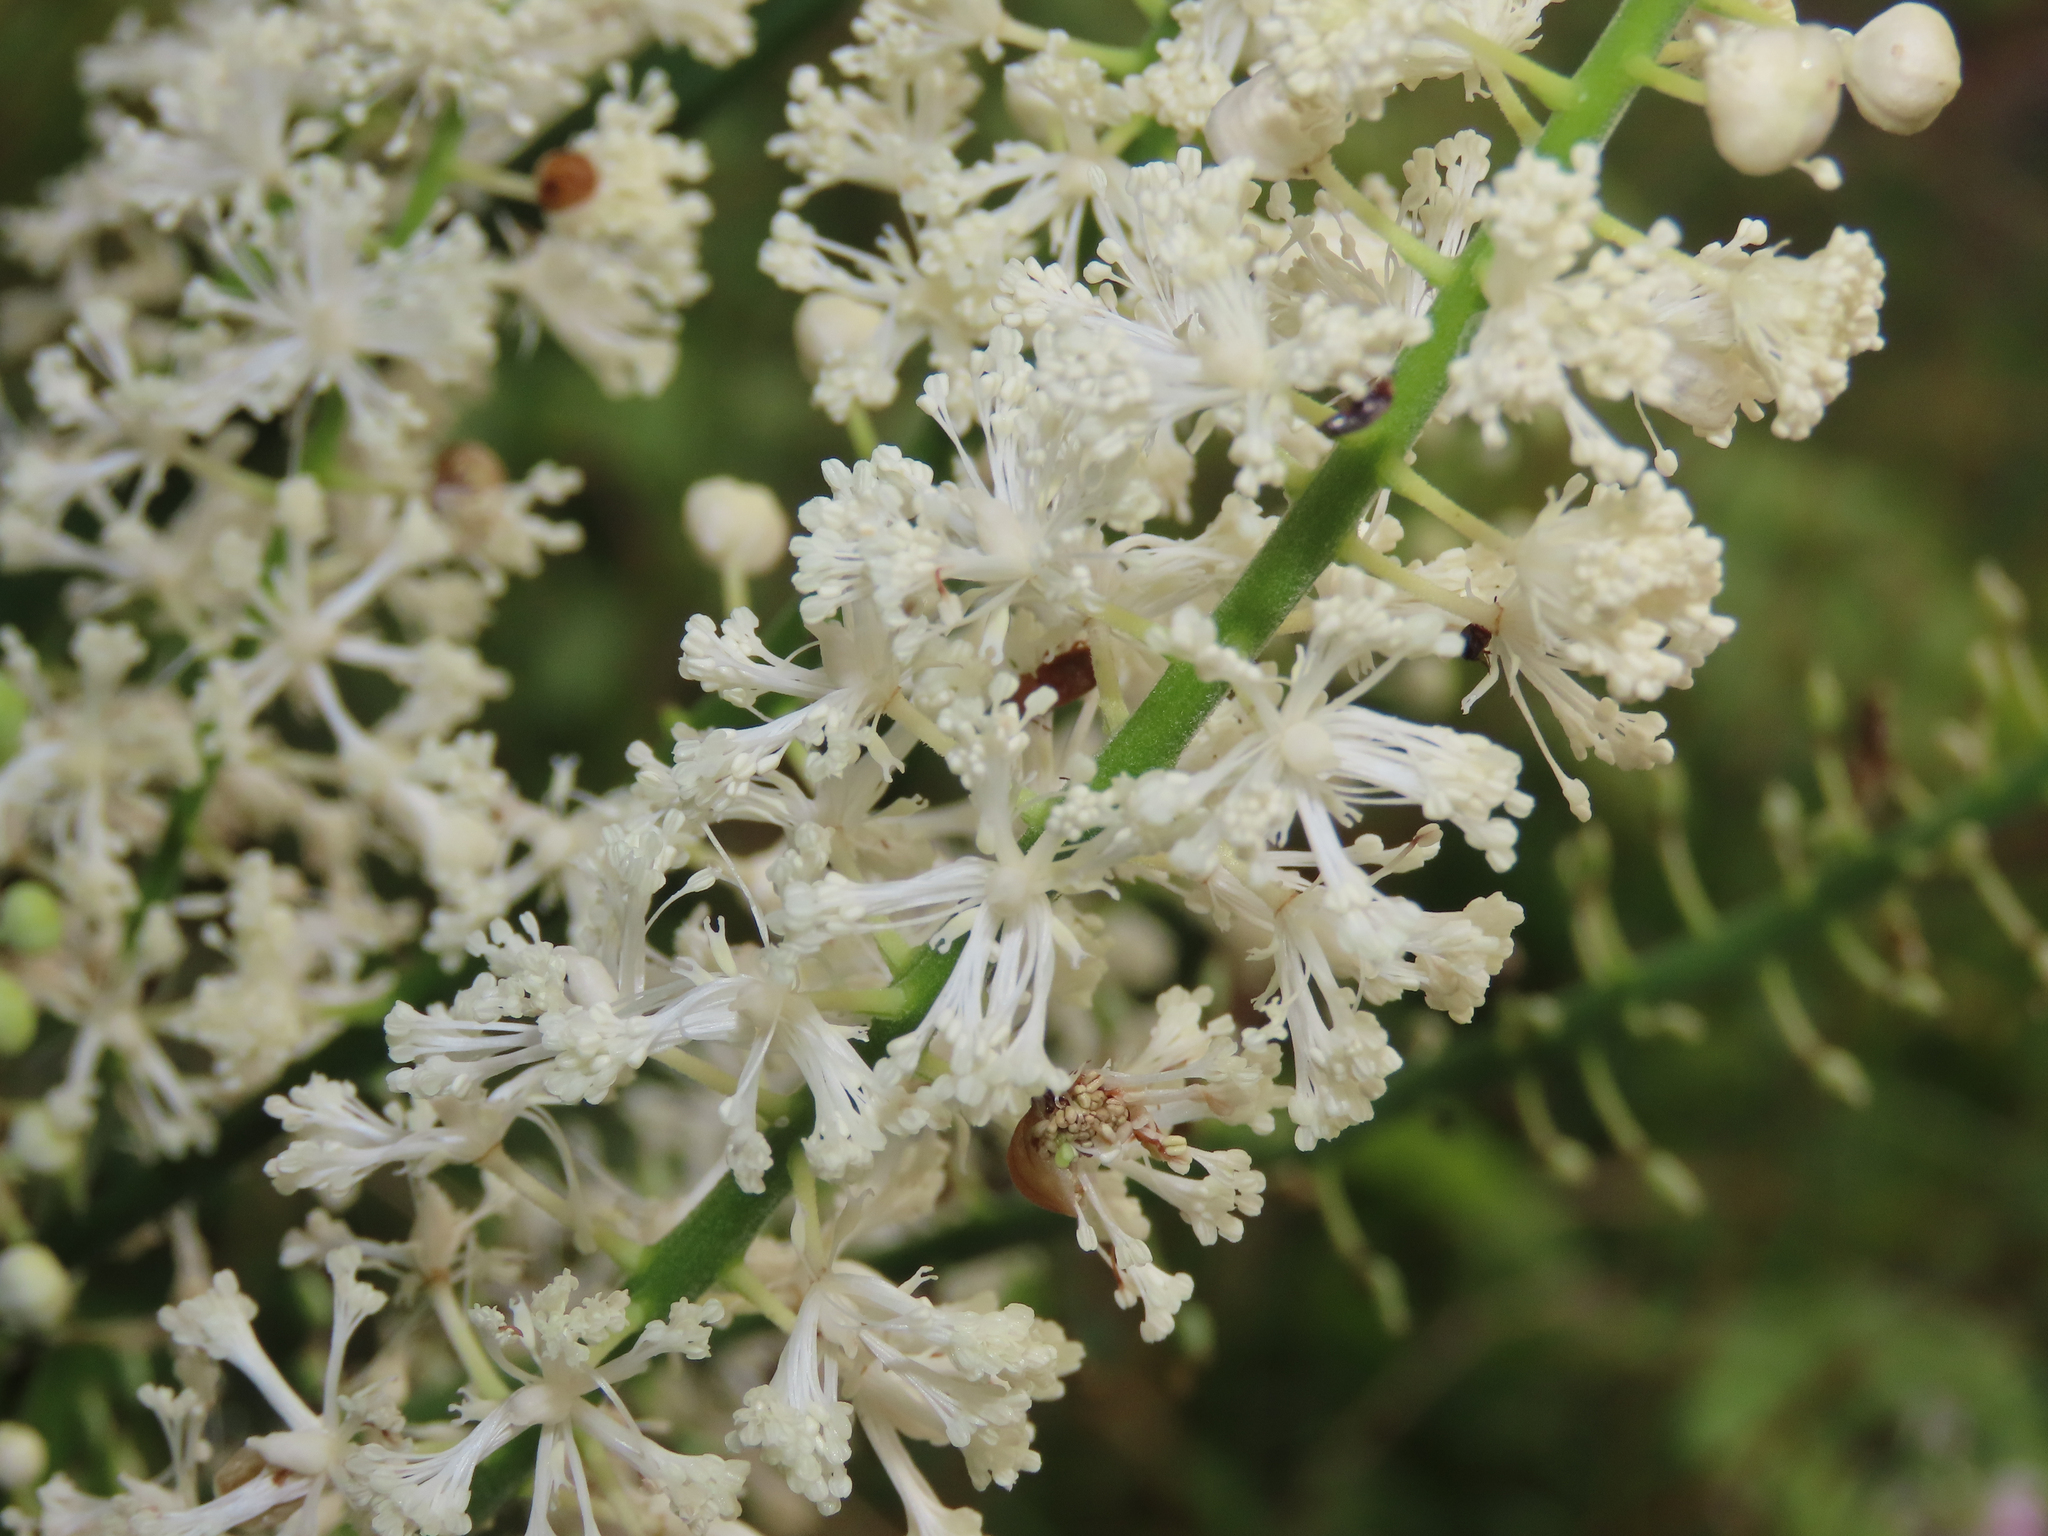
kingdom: Plantae
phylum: Tracheophyta
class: Magnoliopsida
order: Ranunculales
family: Ranunculaceae
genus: Actaea
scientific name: Actaea racemosa
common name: Black cohosh
